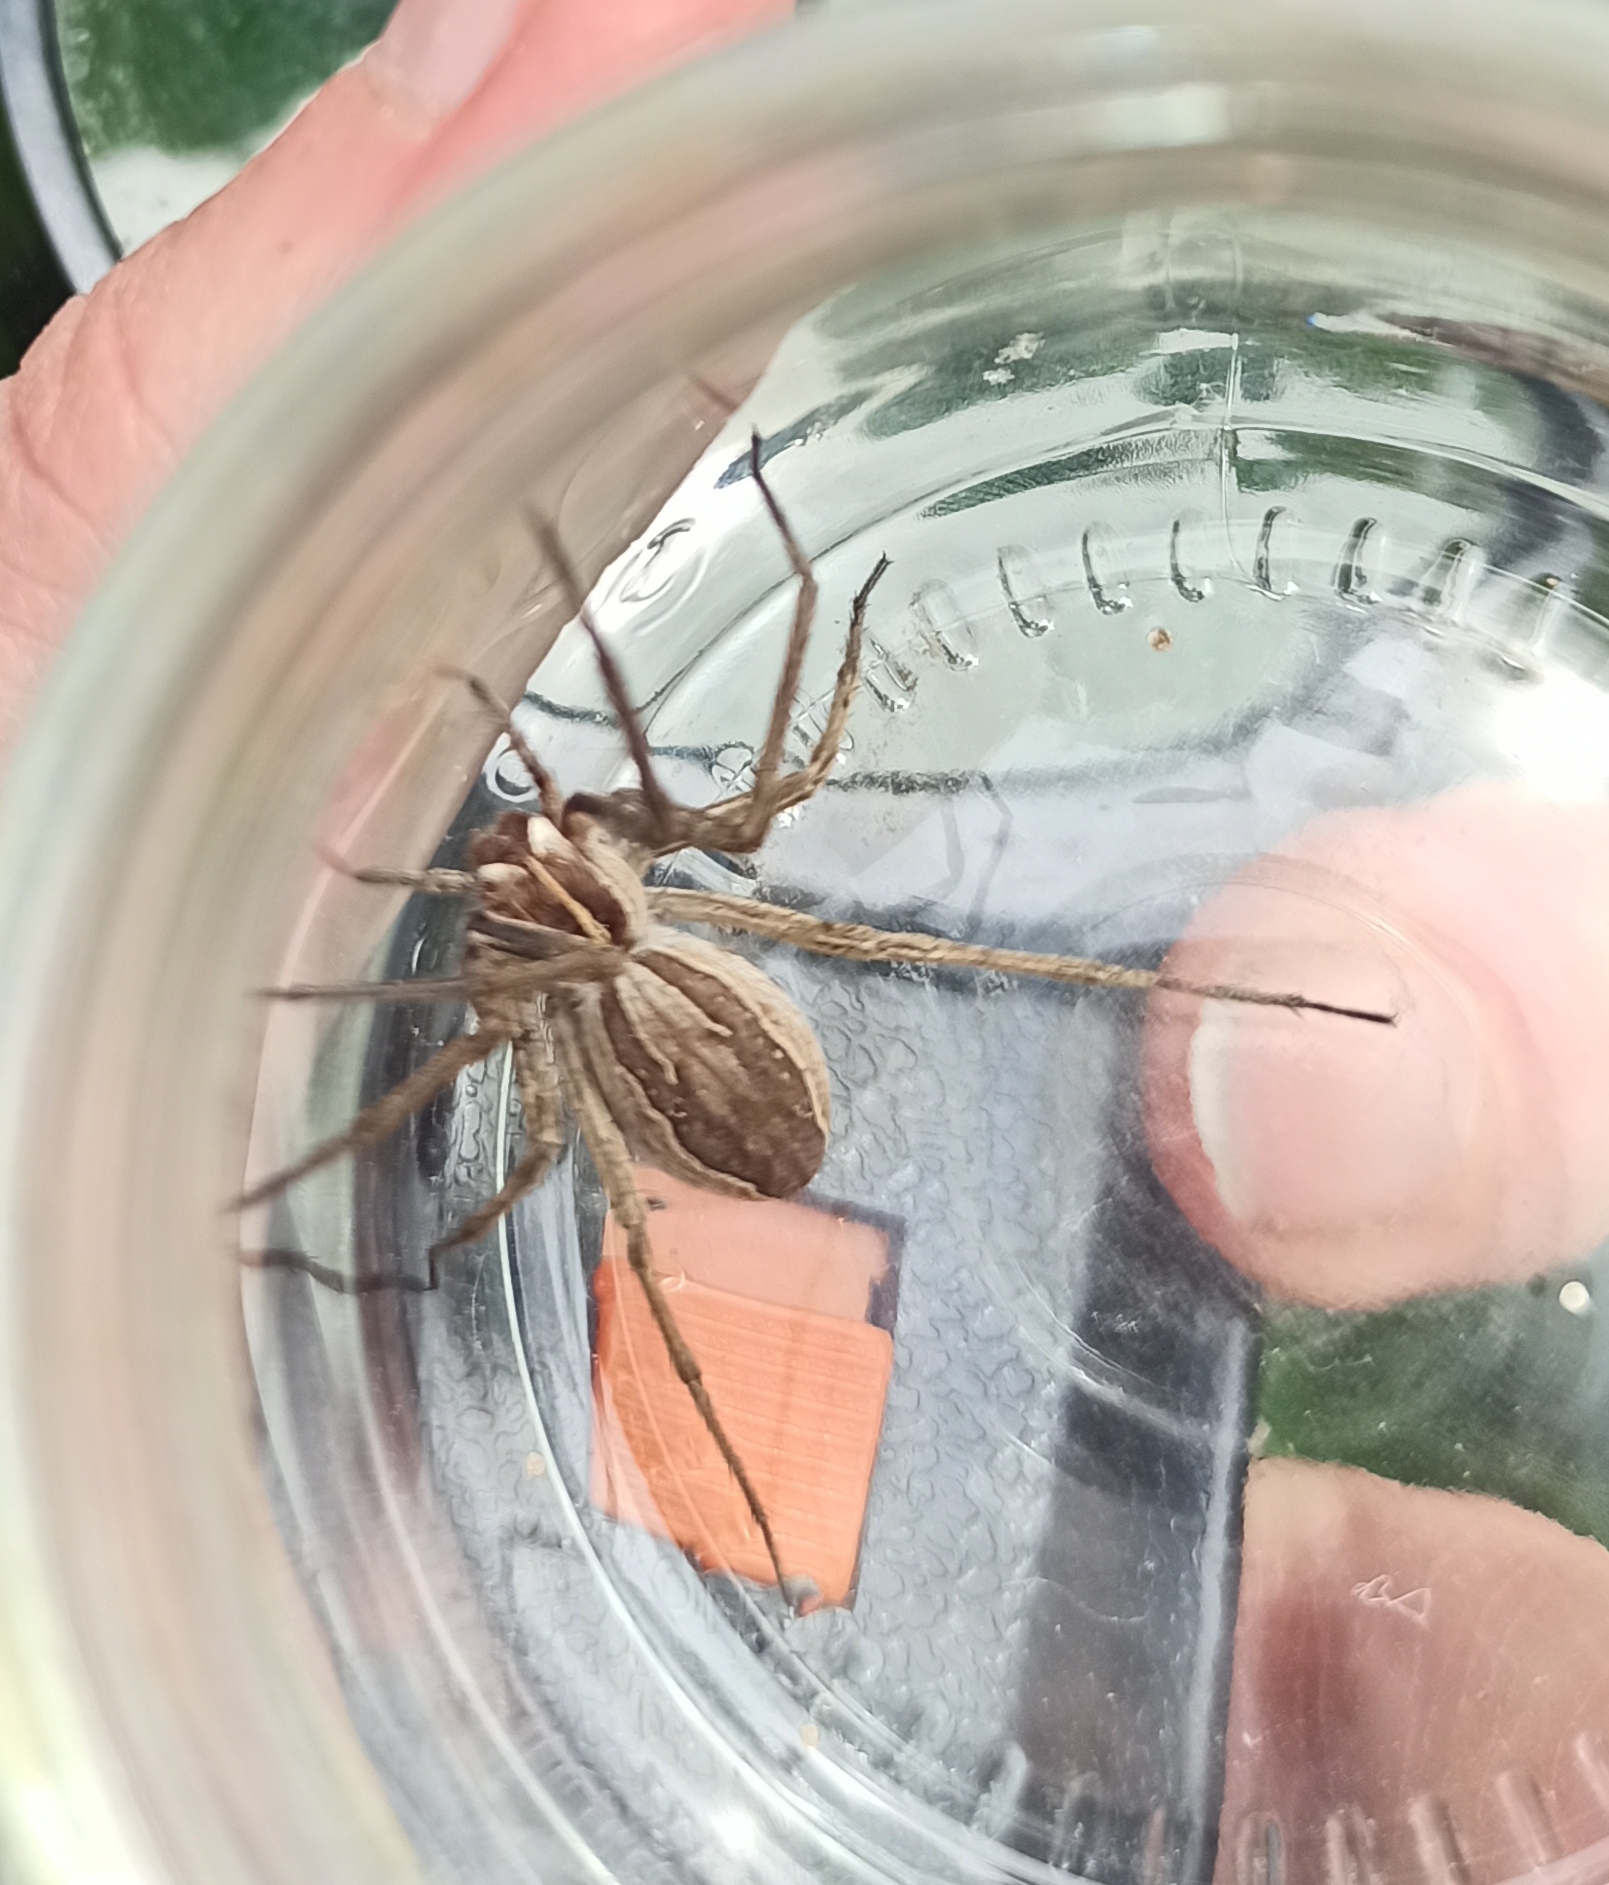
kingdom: Animalia
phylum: Arthropoda
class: Arachnida
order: Araneae
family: Pisauridae
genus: Pisaura
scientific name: Pisaura mirabilis
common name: Tent spider
